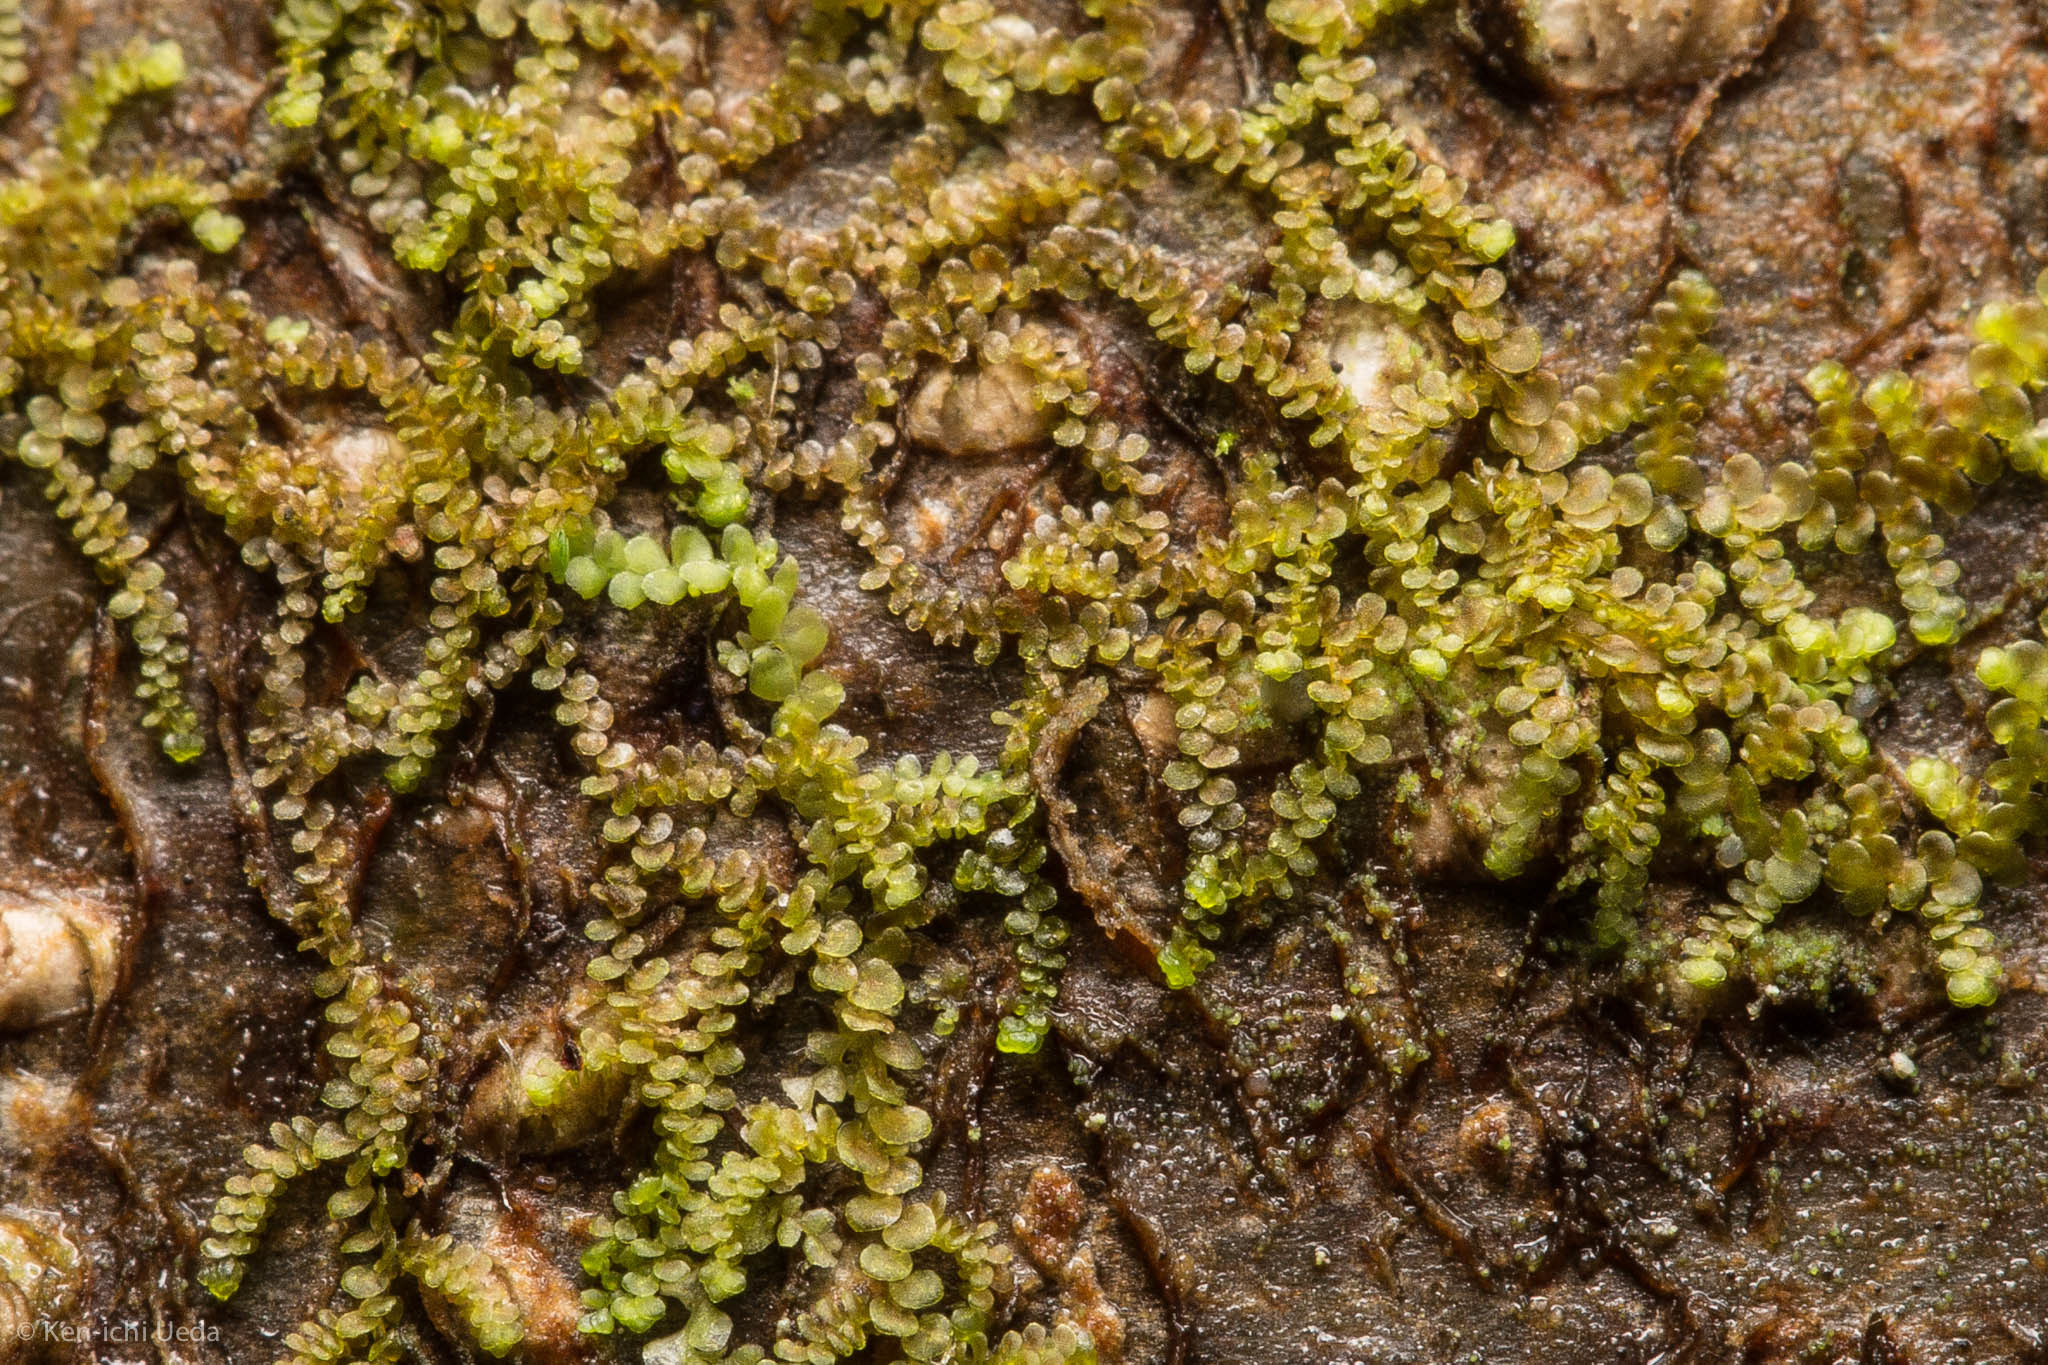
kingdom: Plantae
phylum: Marchantiophyta
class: Jungermanniopsida
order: Porellales
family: Frullaniaceae
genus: Frullania
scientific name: Frullania californica
